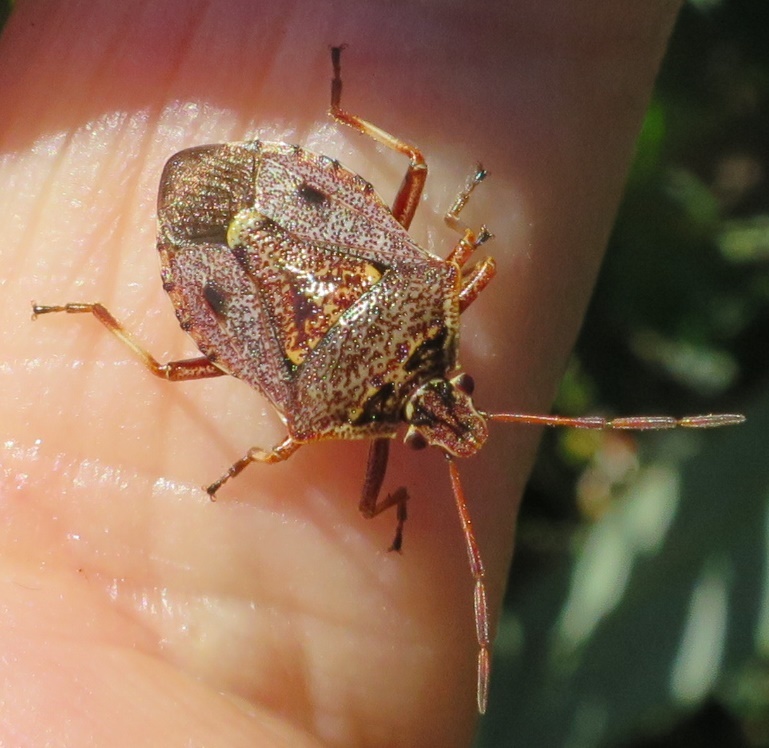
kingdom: Animalia
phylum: Arthropoda
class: Insecta
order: Hemiptera
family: Pentatomidae
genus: Cermatulus
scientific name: Cermatulus nasalis
